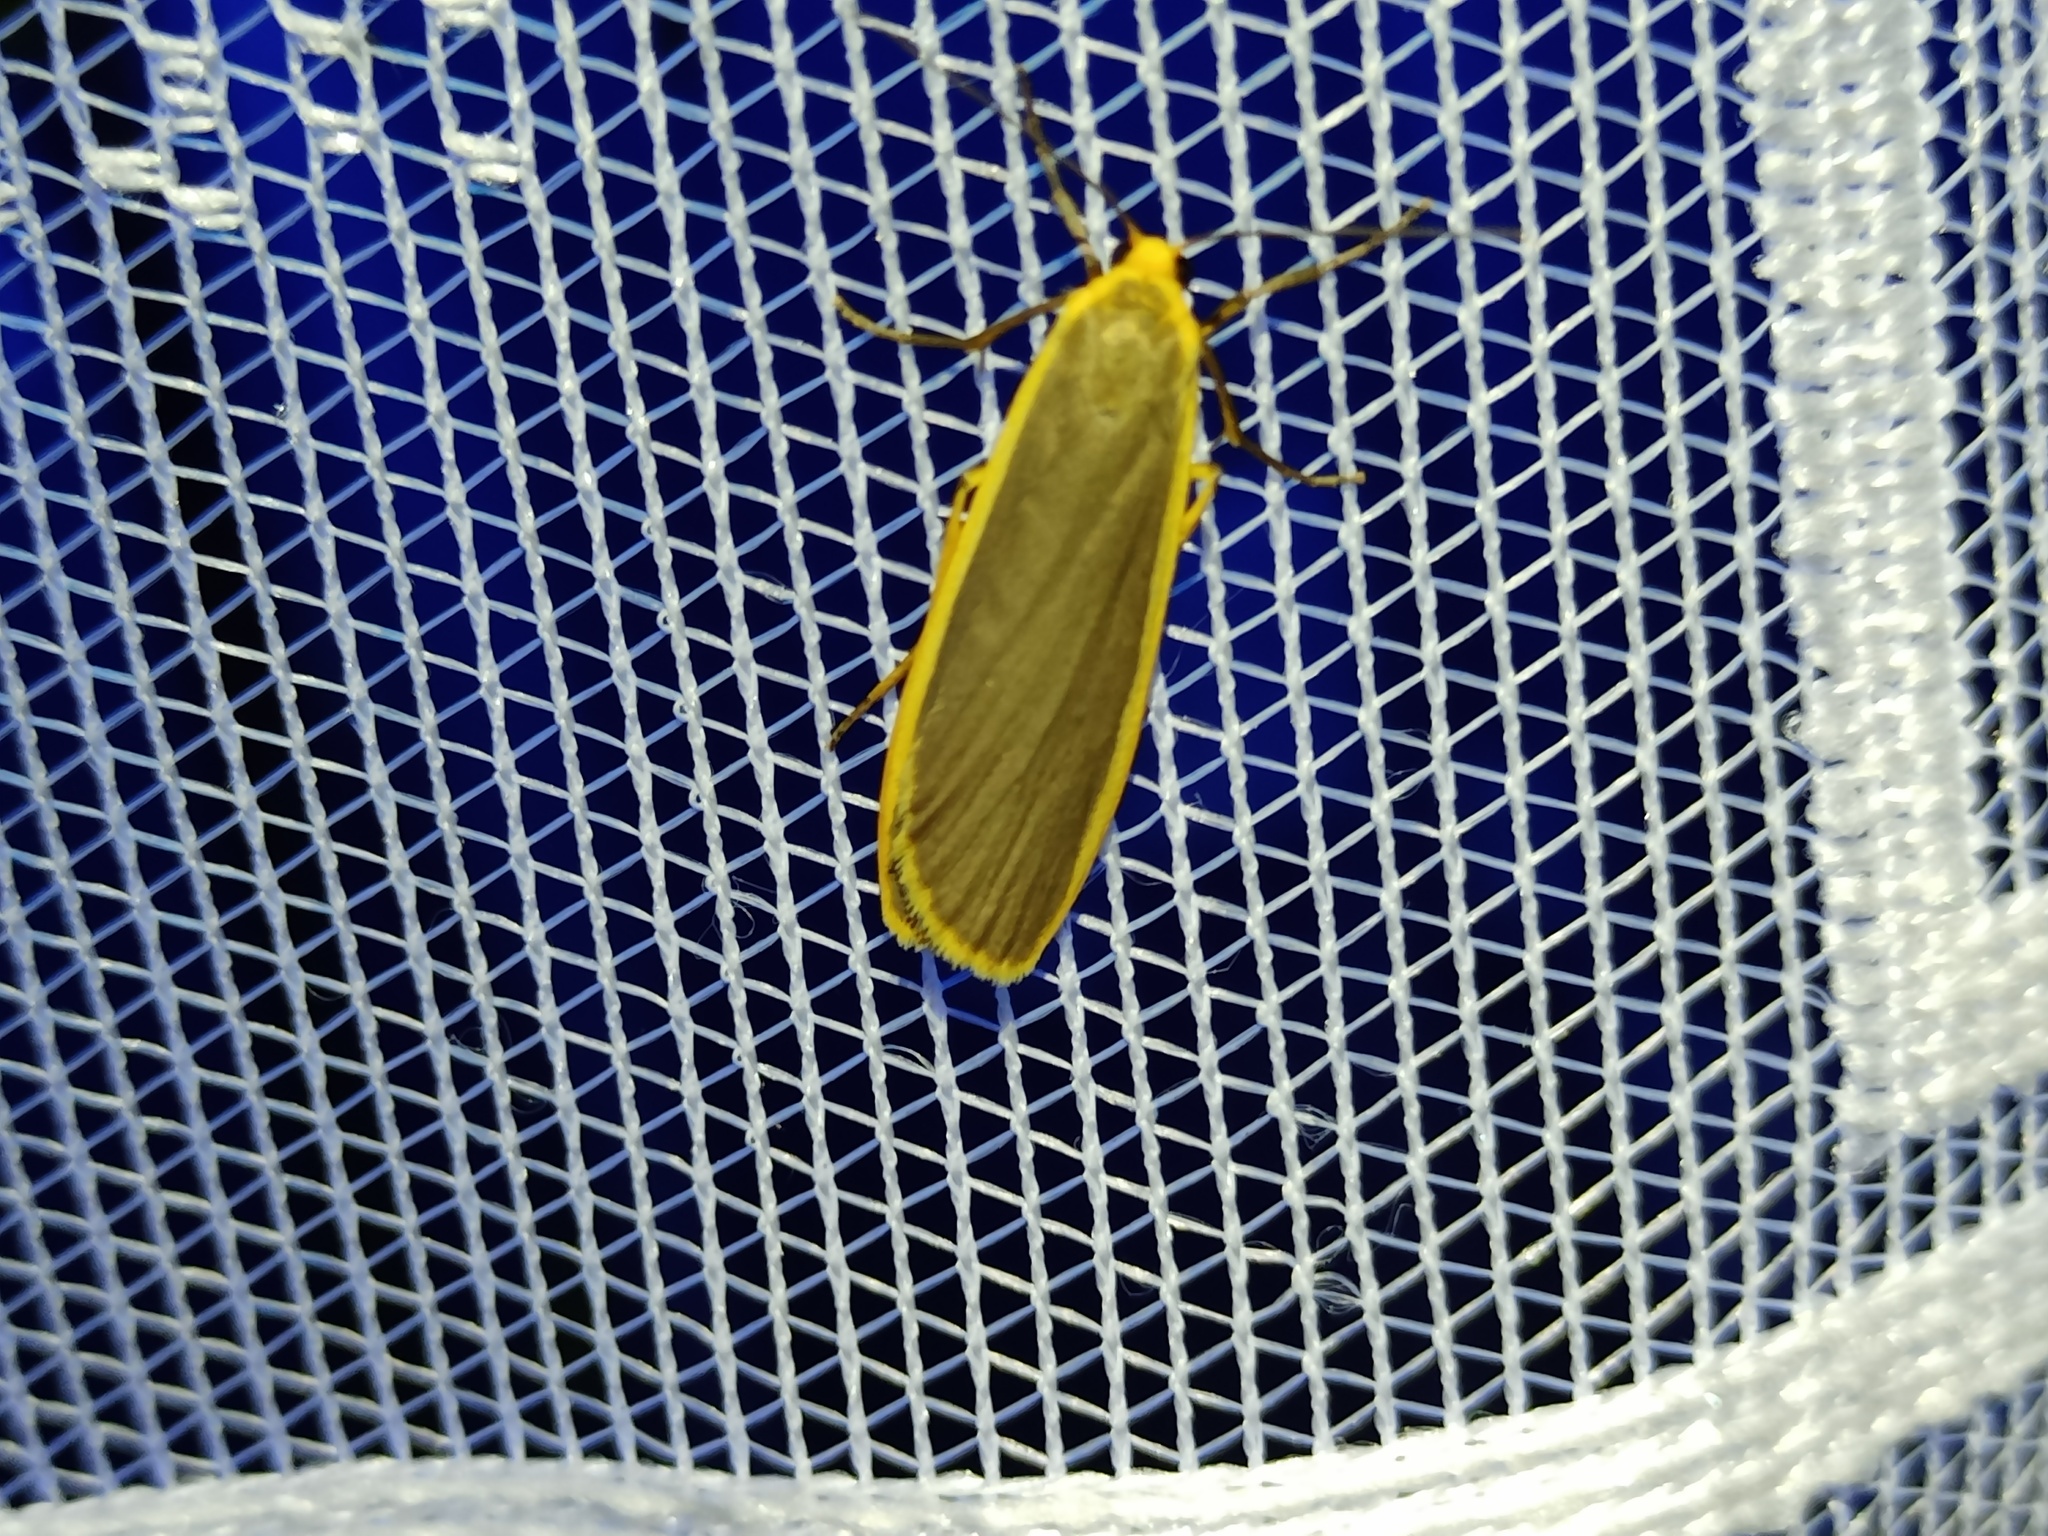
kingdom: Animalia
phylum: Arthropoda
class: Insecta
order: Lepidoptera
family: Erebidae
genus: Nyea
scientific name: Nyea lurideola
